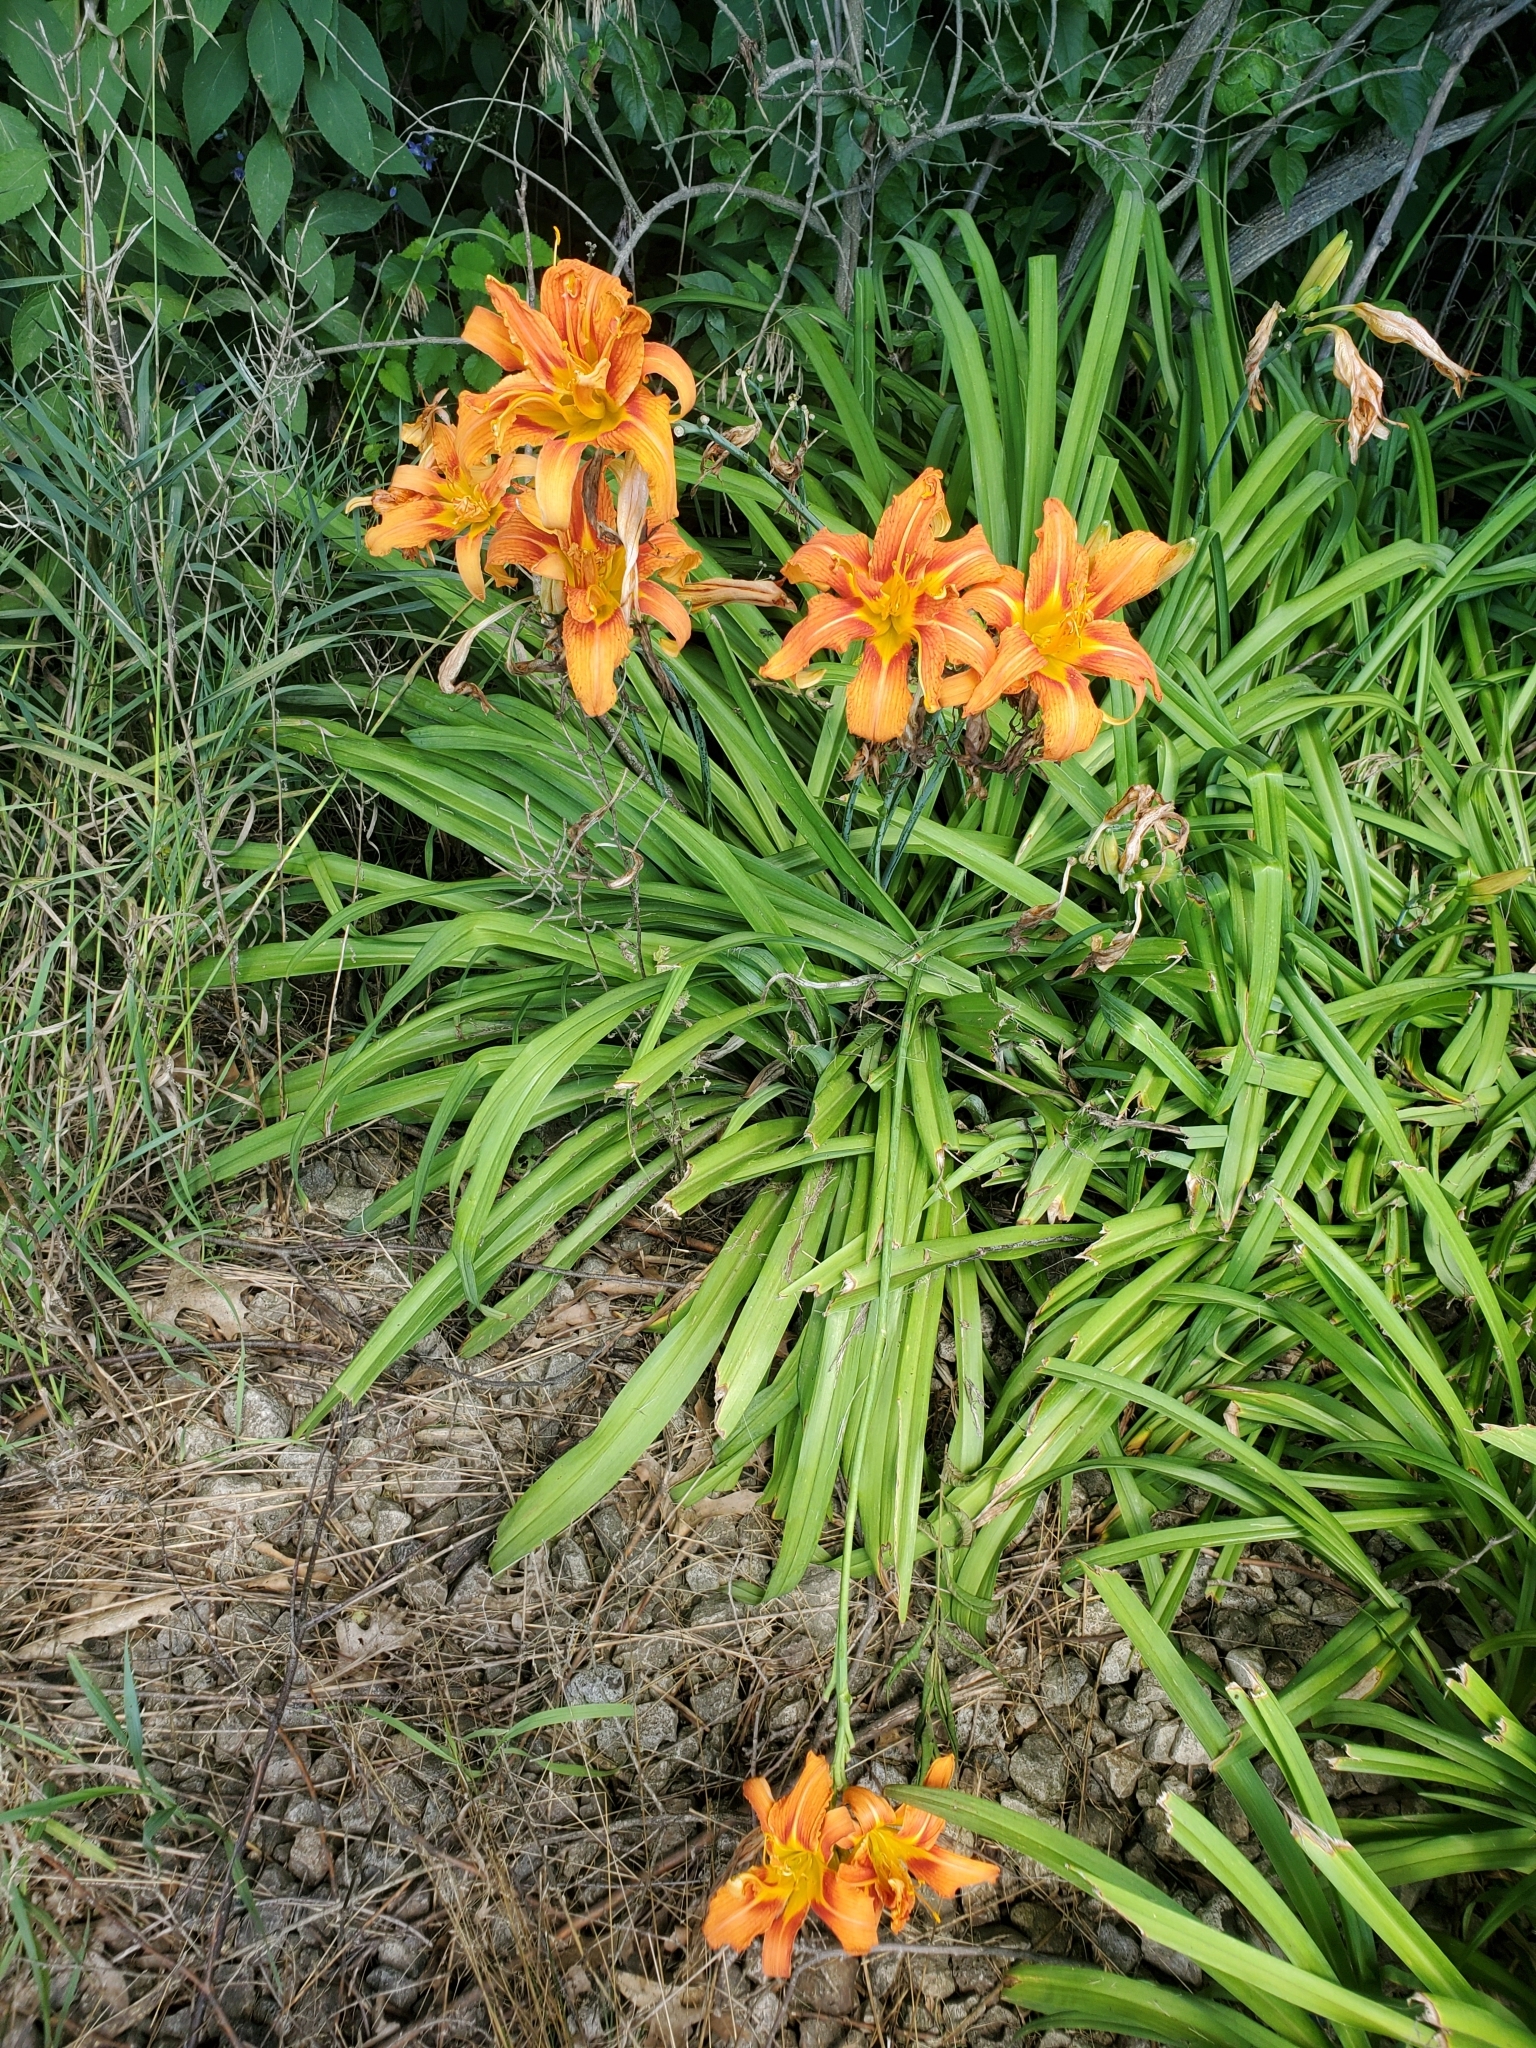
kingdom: Plantae
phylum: Tracheophyta
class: Liliopsida
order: Asparagales
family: Asphodelaceae
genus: Hemerocallis
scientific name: Hemerocallis fulva
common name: Orange day-lily
